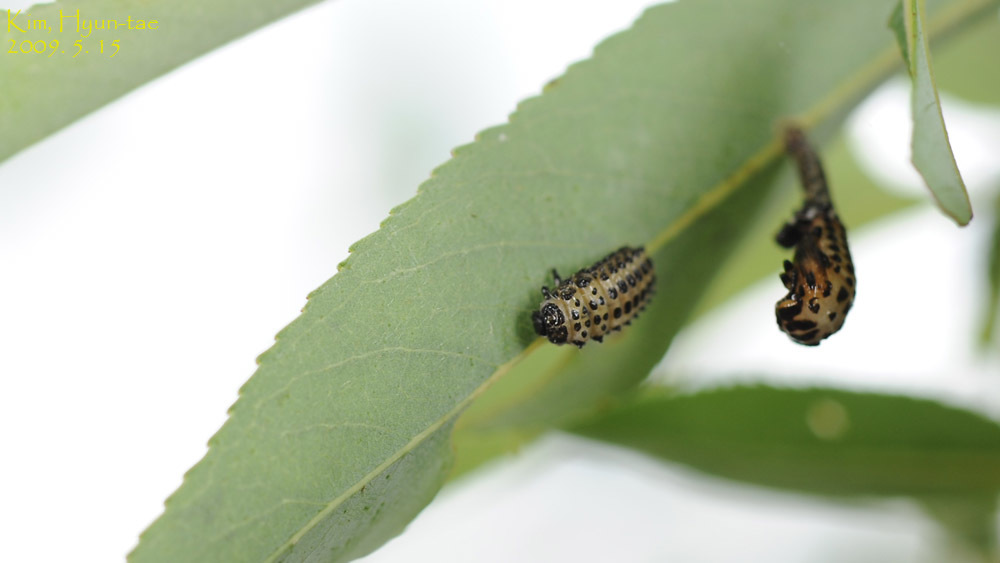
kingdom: Animalia
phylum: Arthropoda
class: Insecta
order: Coleoptera
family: Chrysomelidae
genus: Chrysomela
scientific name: Chrysomela vigintipunctata
